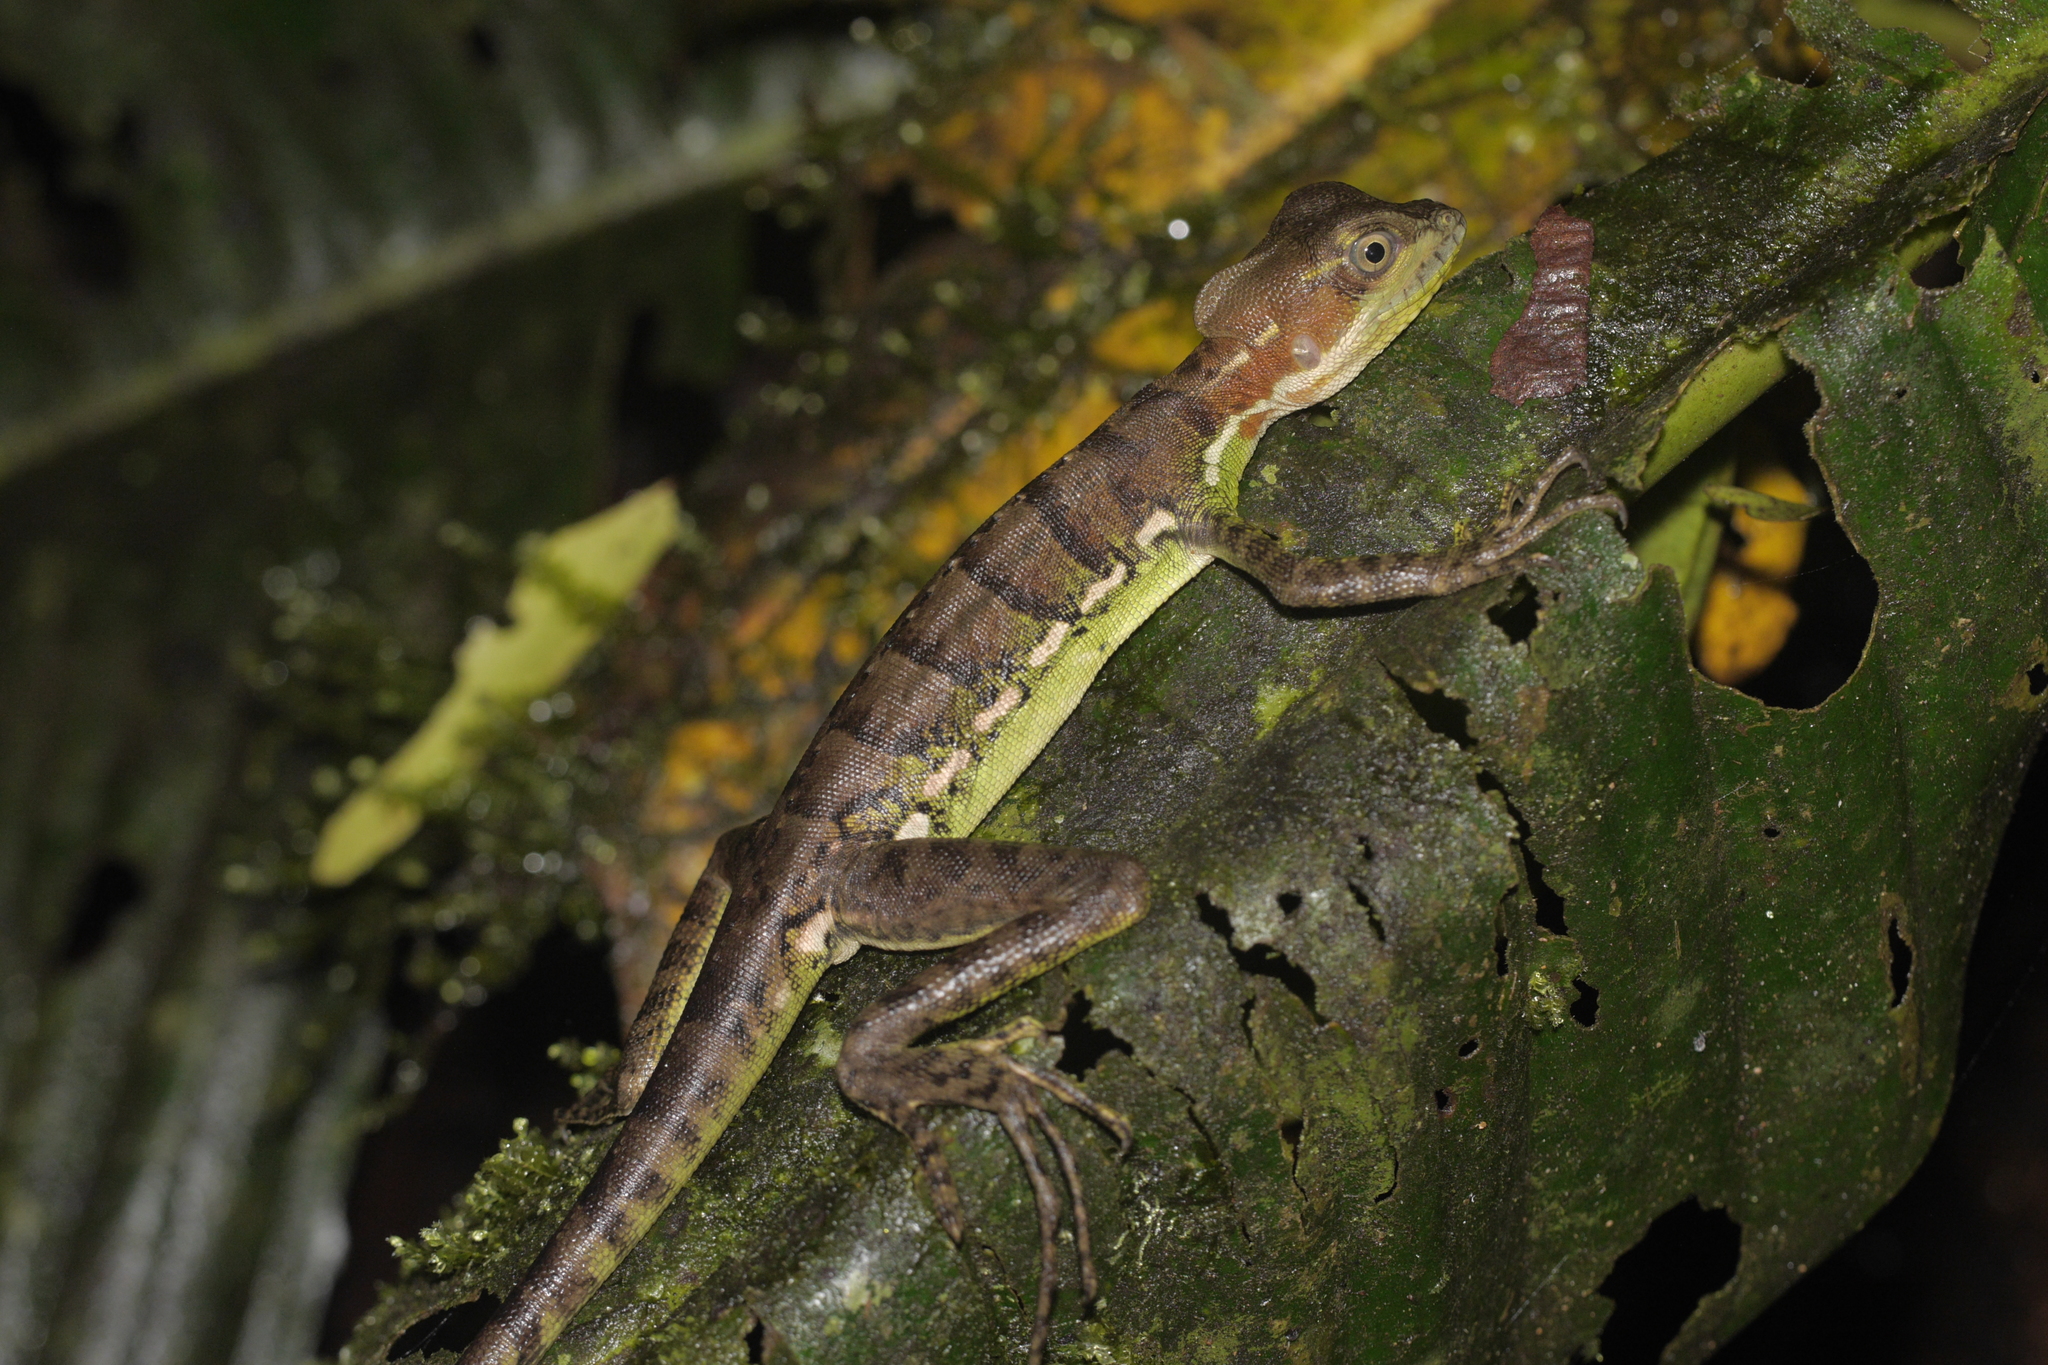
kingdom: Animalia
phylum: Chordata
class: Squamata
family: Corytophanidae
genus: Basiliscus
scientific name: Basiliscus galeritus
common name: Western basilisk
